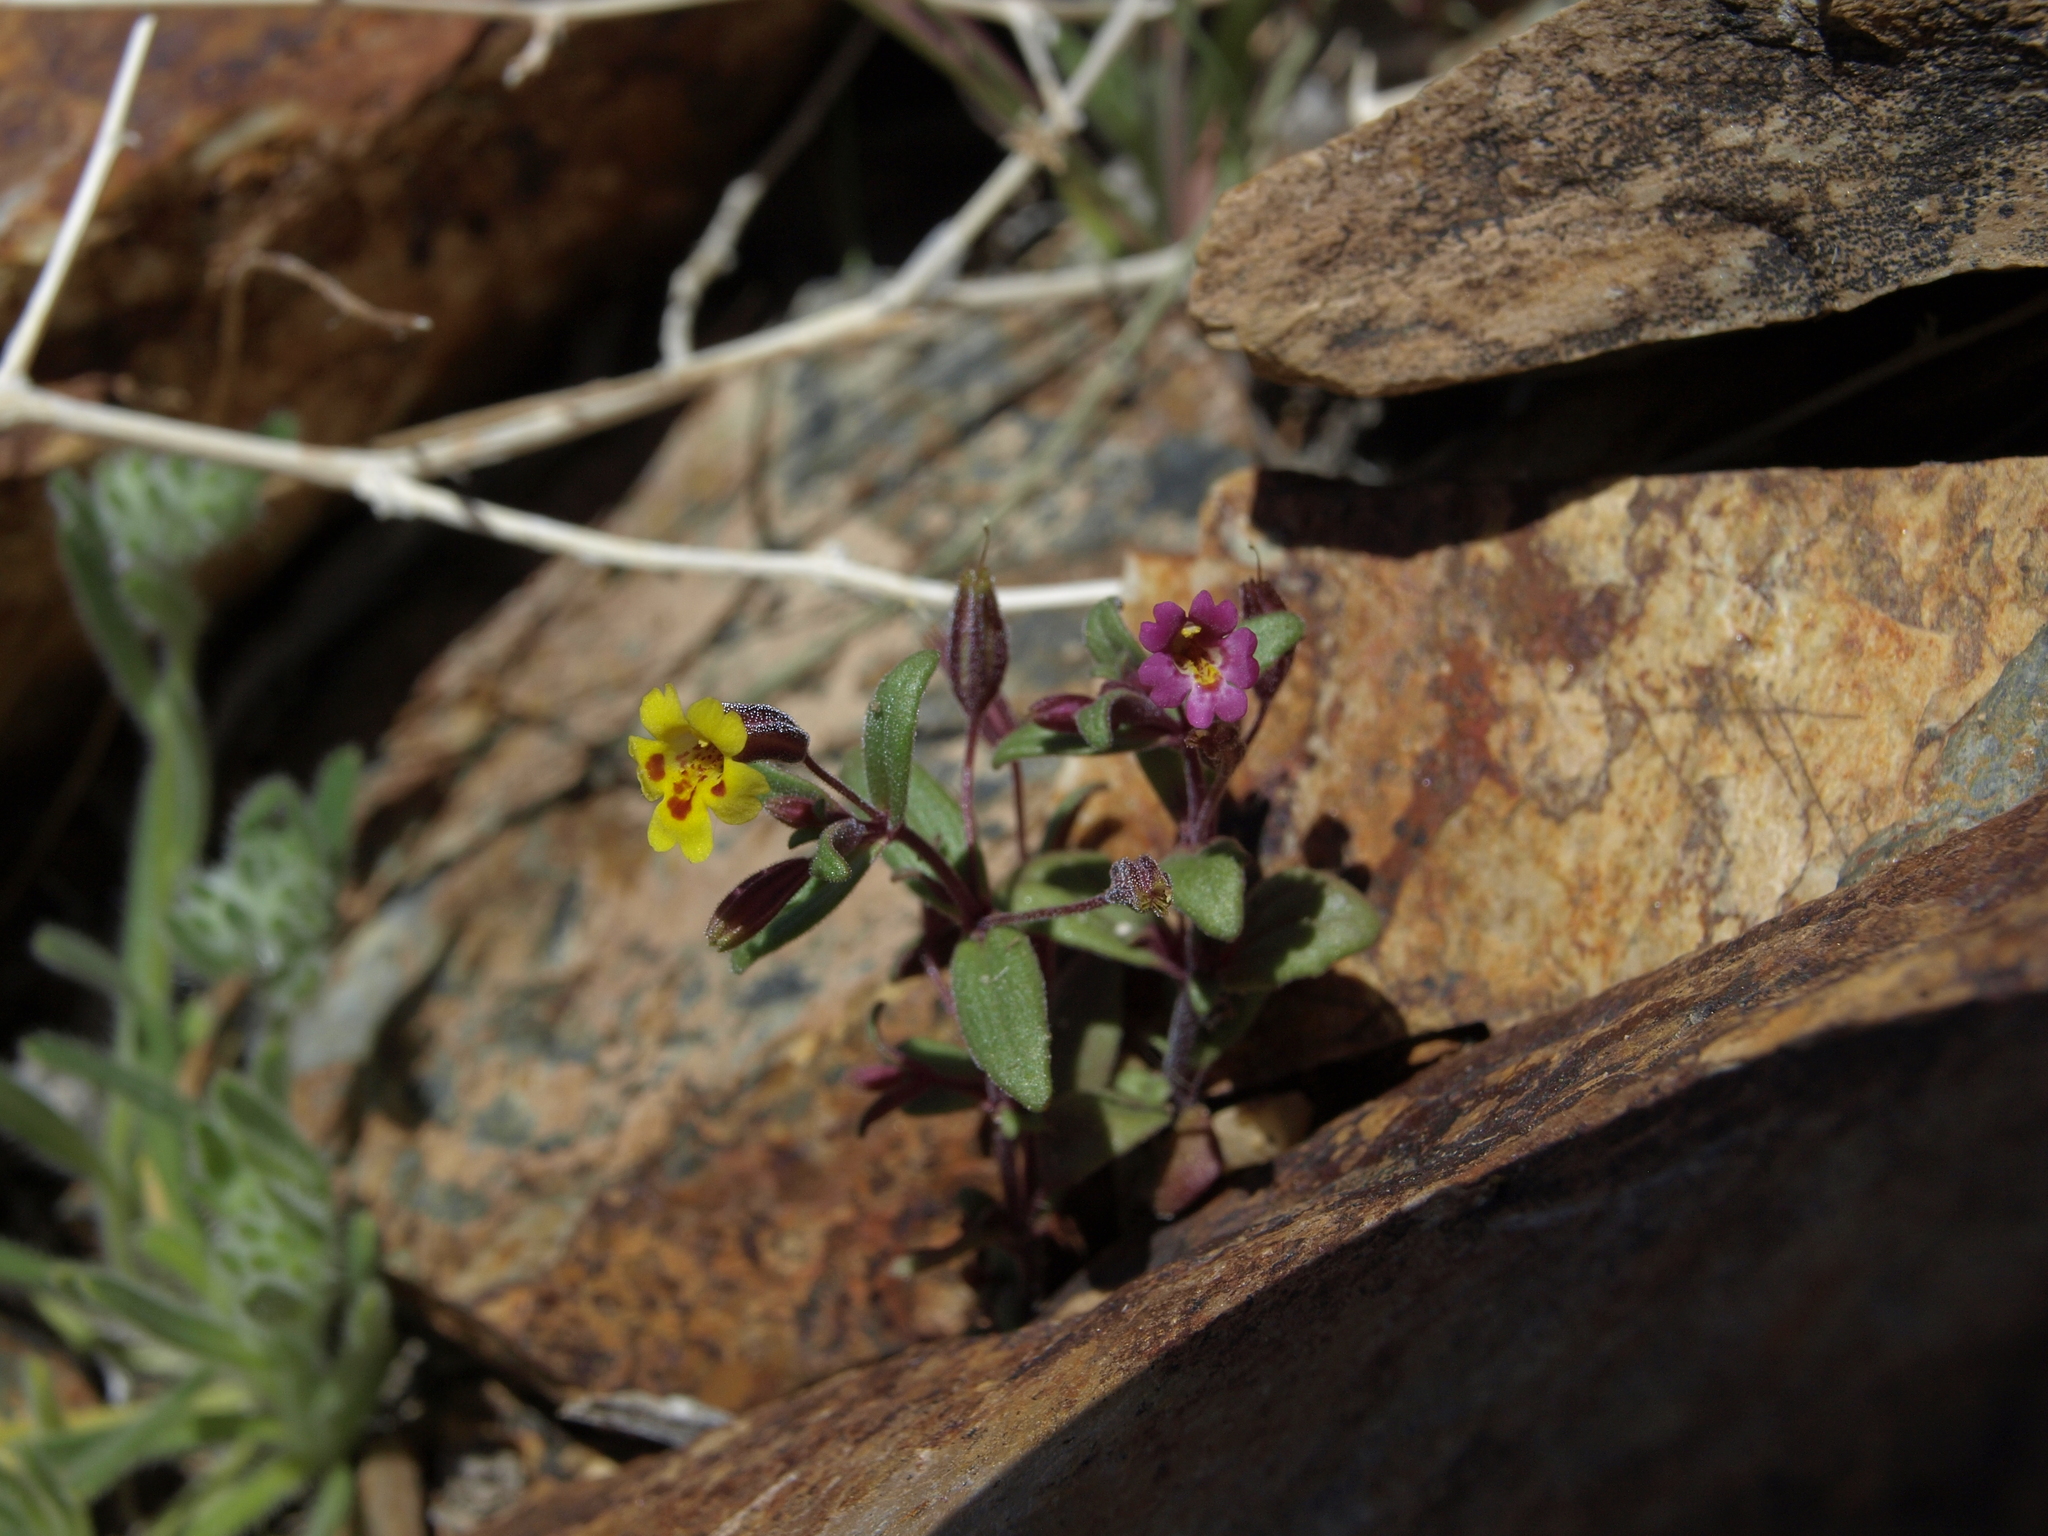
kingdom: Plantae
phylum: Tracheophyta
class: Magnoliopsida
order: Lamiales
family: Phrymaceae
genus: Erythranthe
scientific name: Erythranthe rubella
